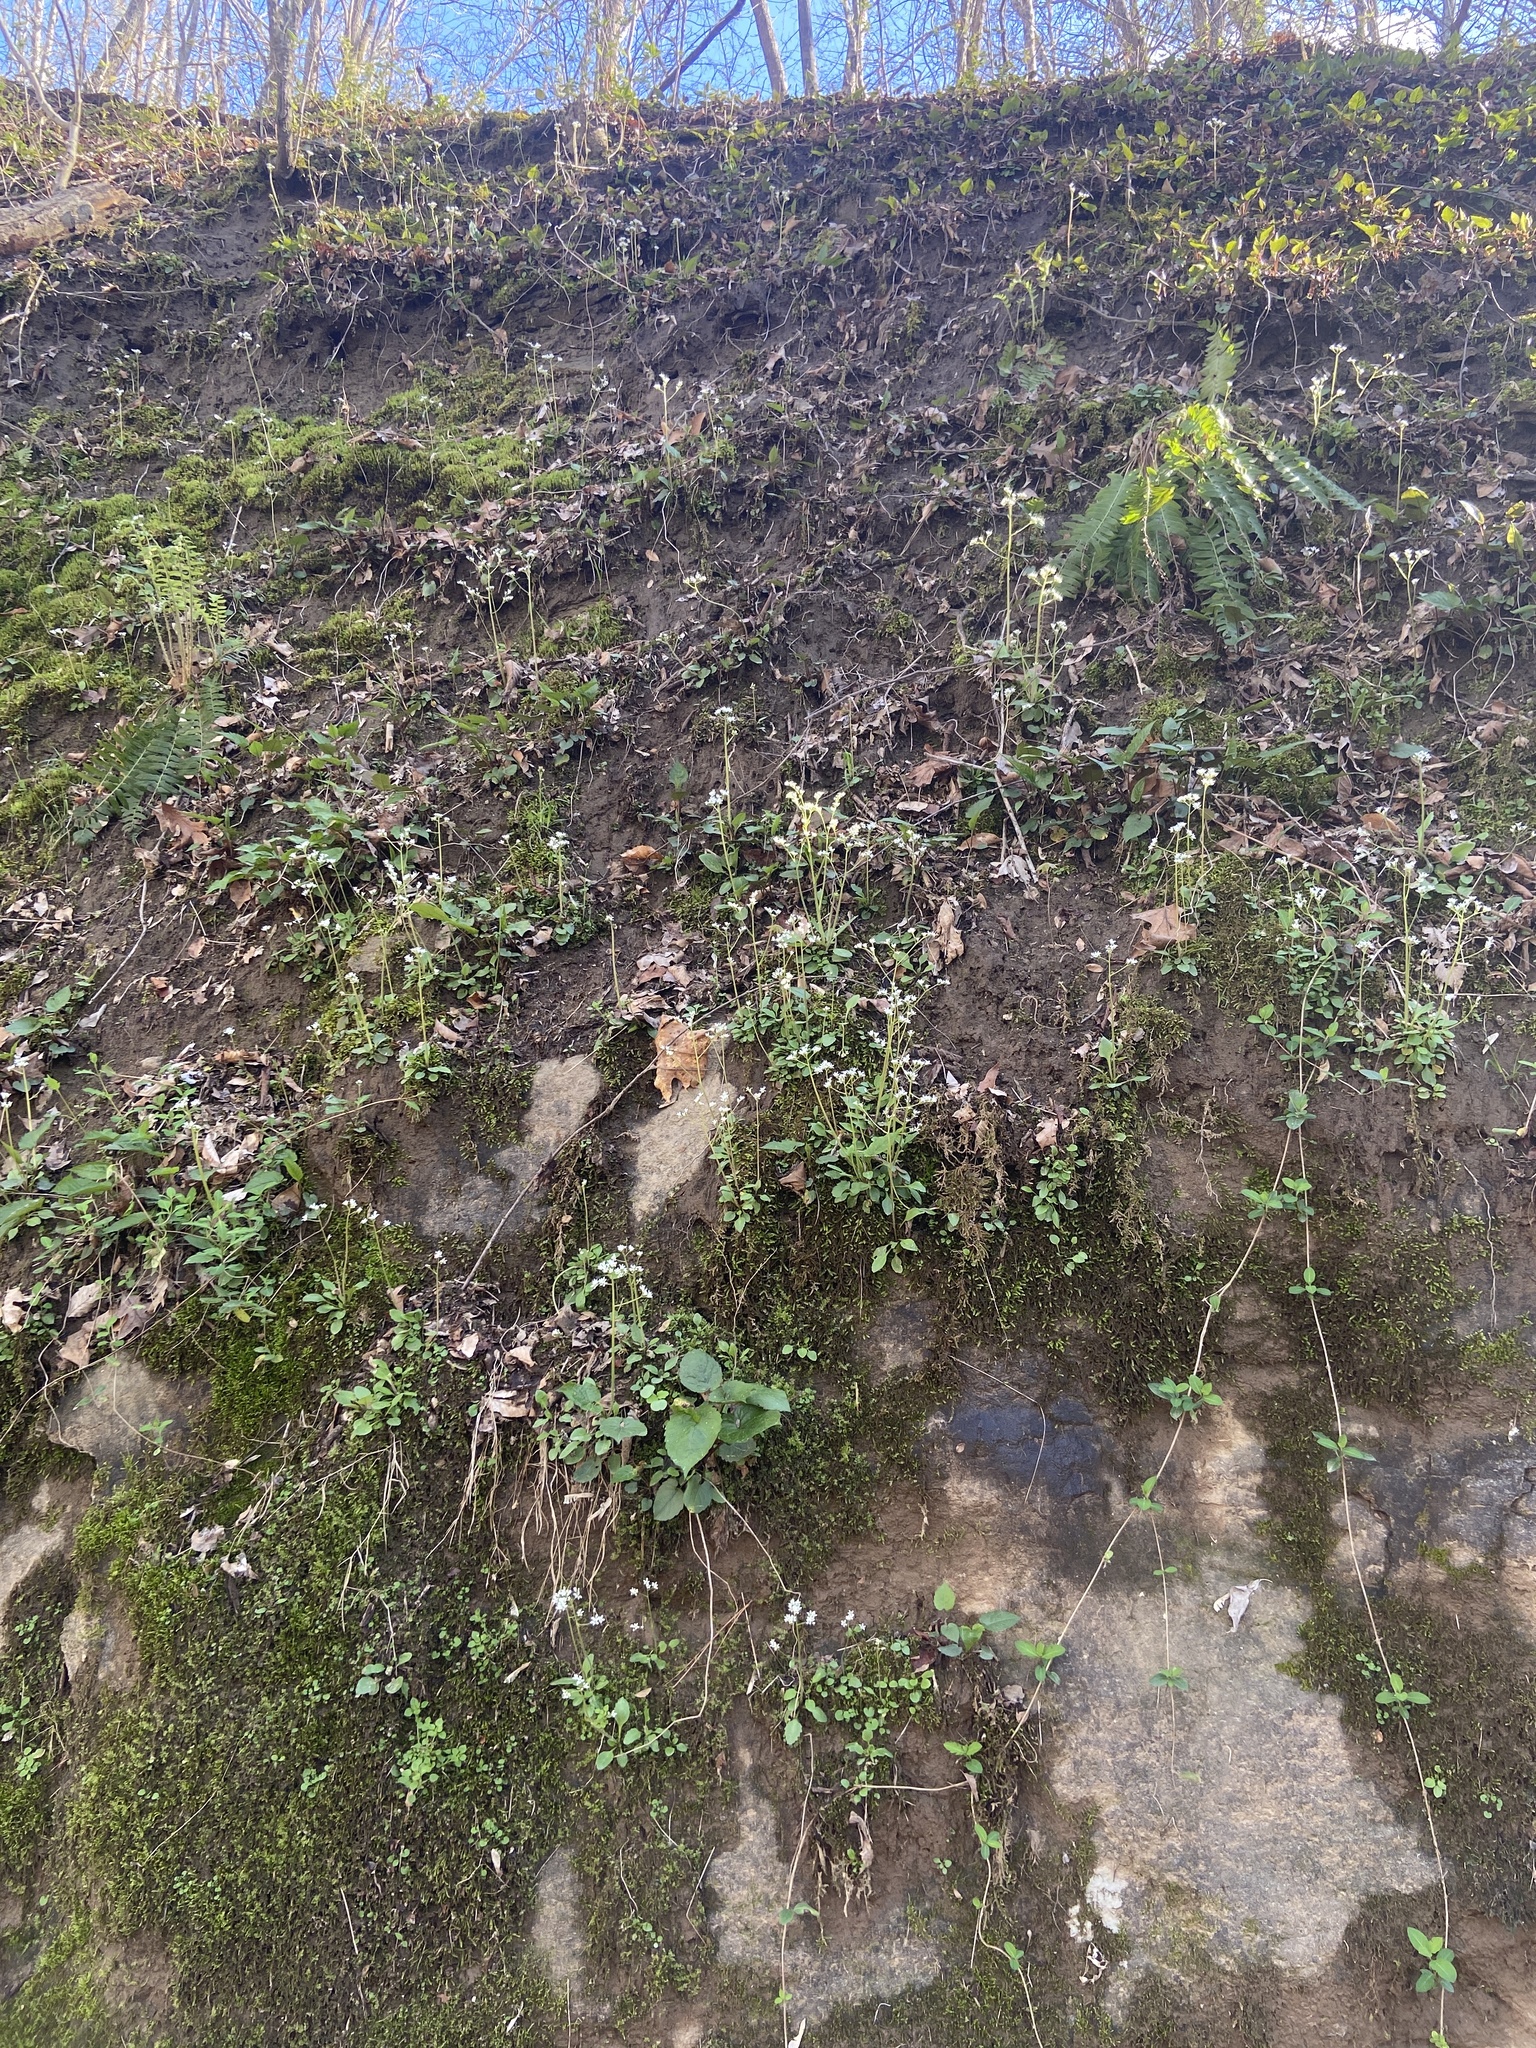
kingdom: Plantae
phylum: Tracheophyta
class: Magnoliopsida
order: Saxifragales
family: Saxifragaceae
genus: Micranthes
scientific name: Micranthes virginiensis
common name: Early saxifrage
